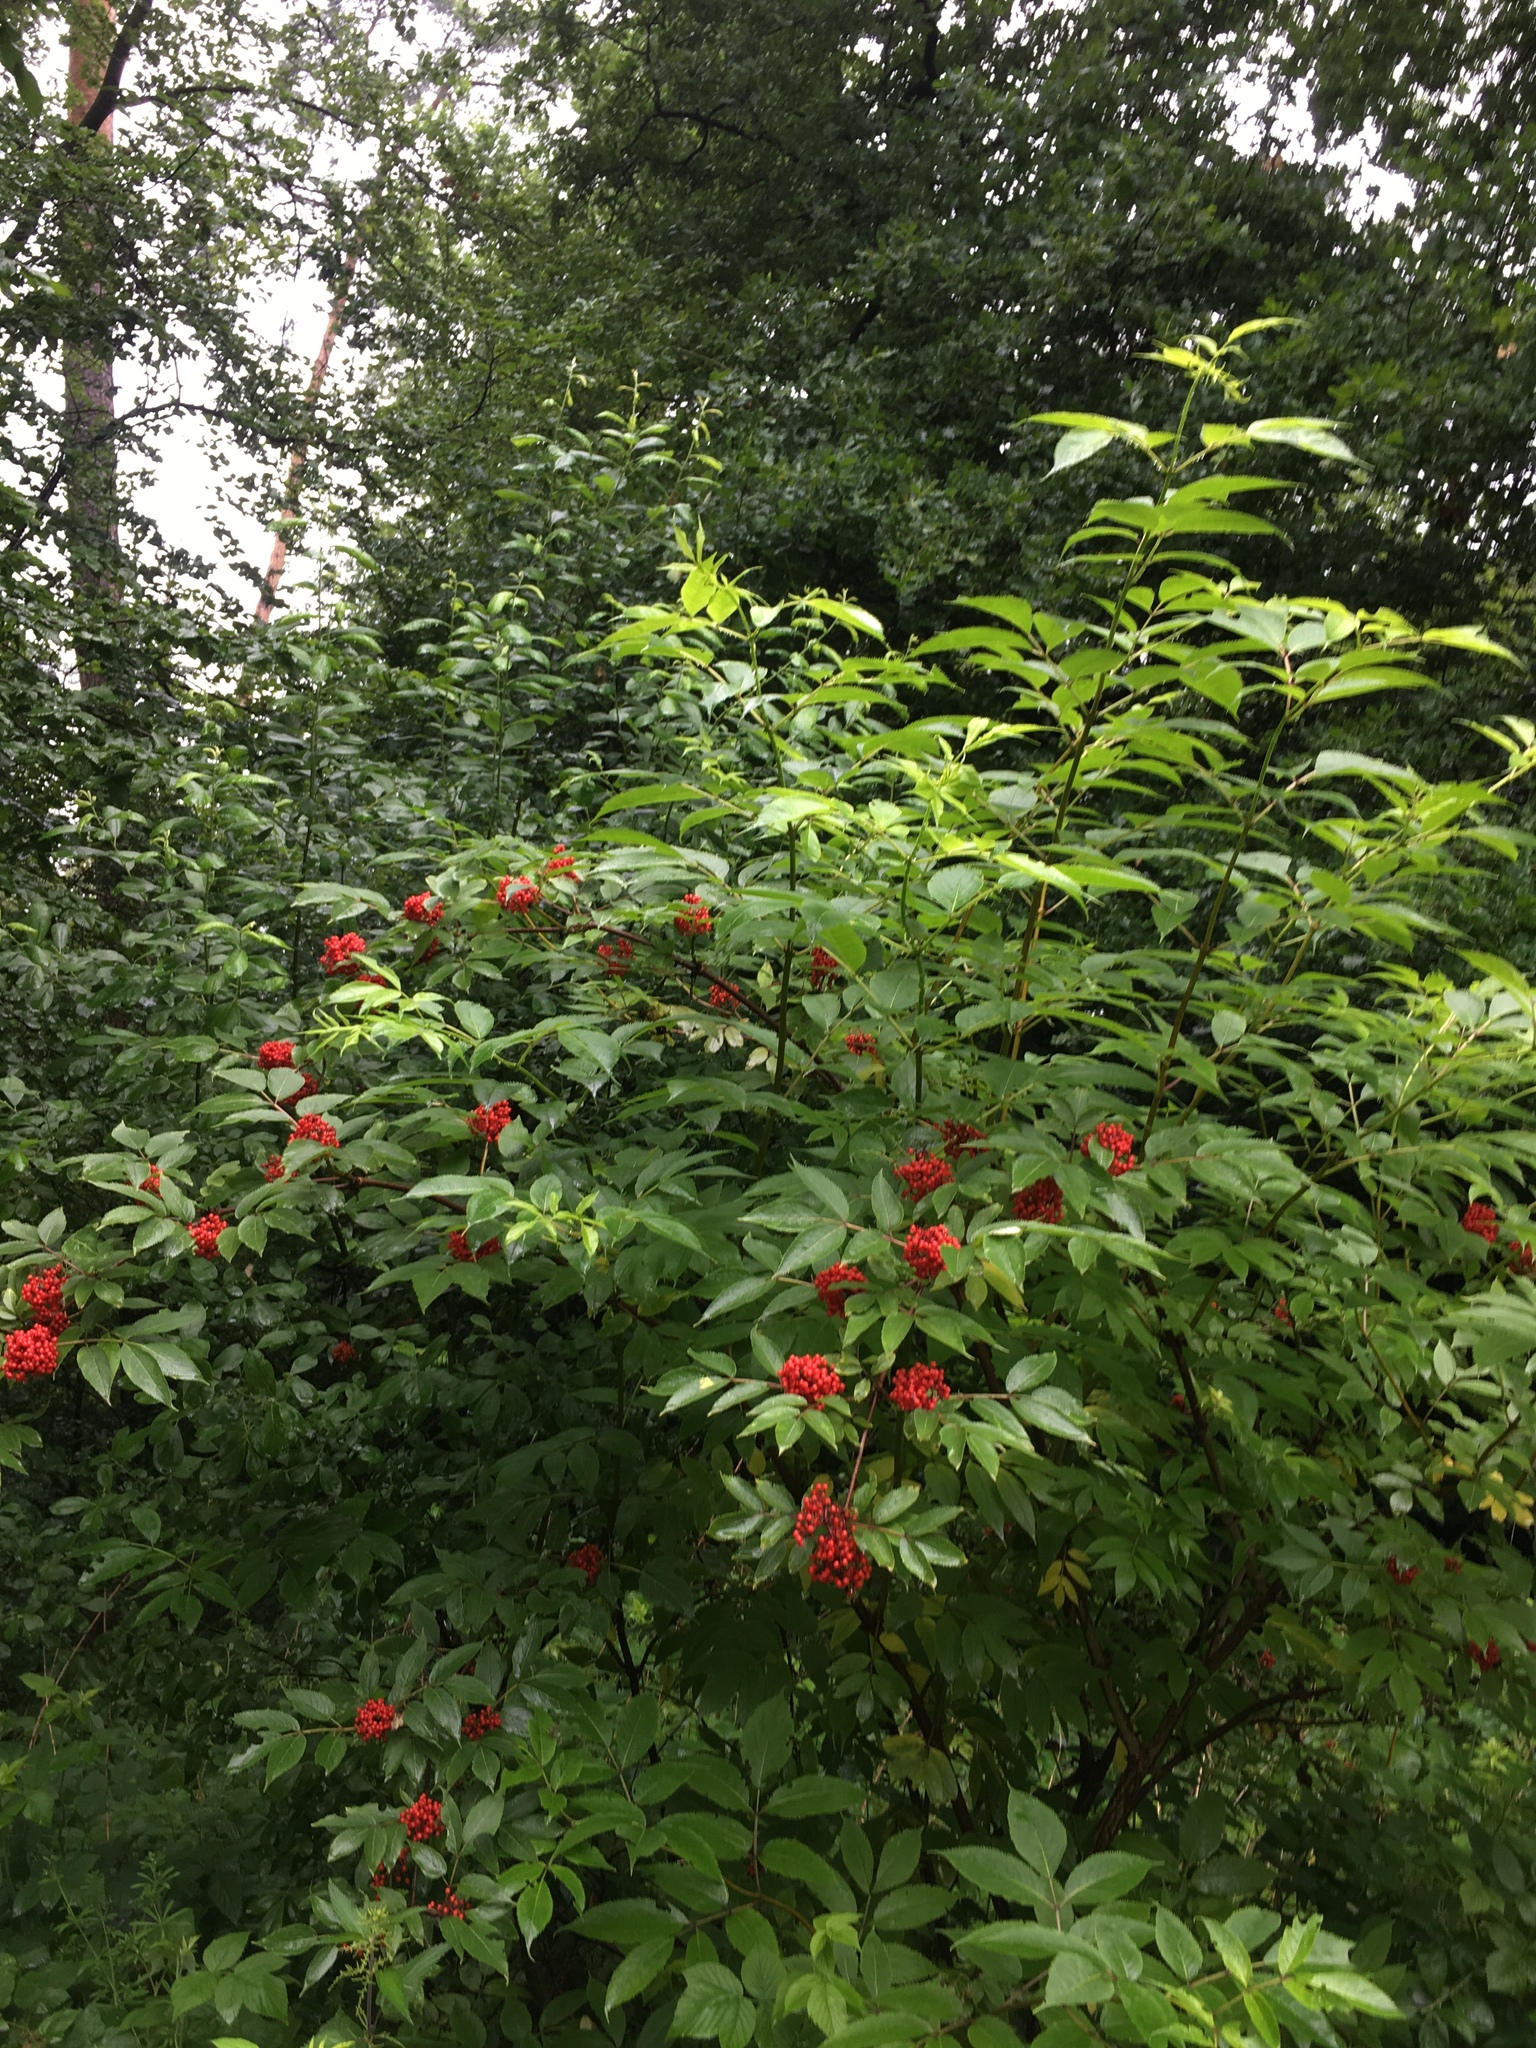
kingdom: Plantae
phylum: Tracheophyta
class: Magnoliopsida
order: Dipsacales
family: Viburnaceae
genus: Sambucus
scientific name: Sambucus racemosa
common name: Red-berried elder
